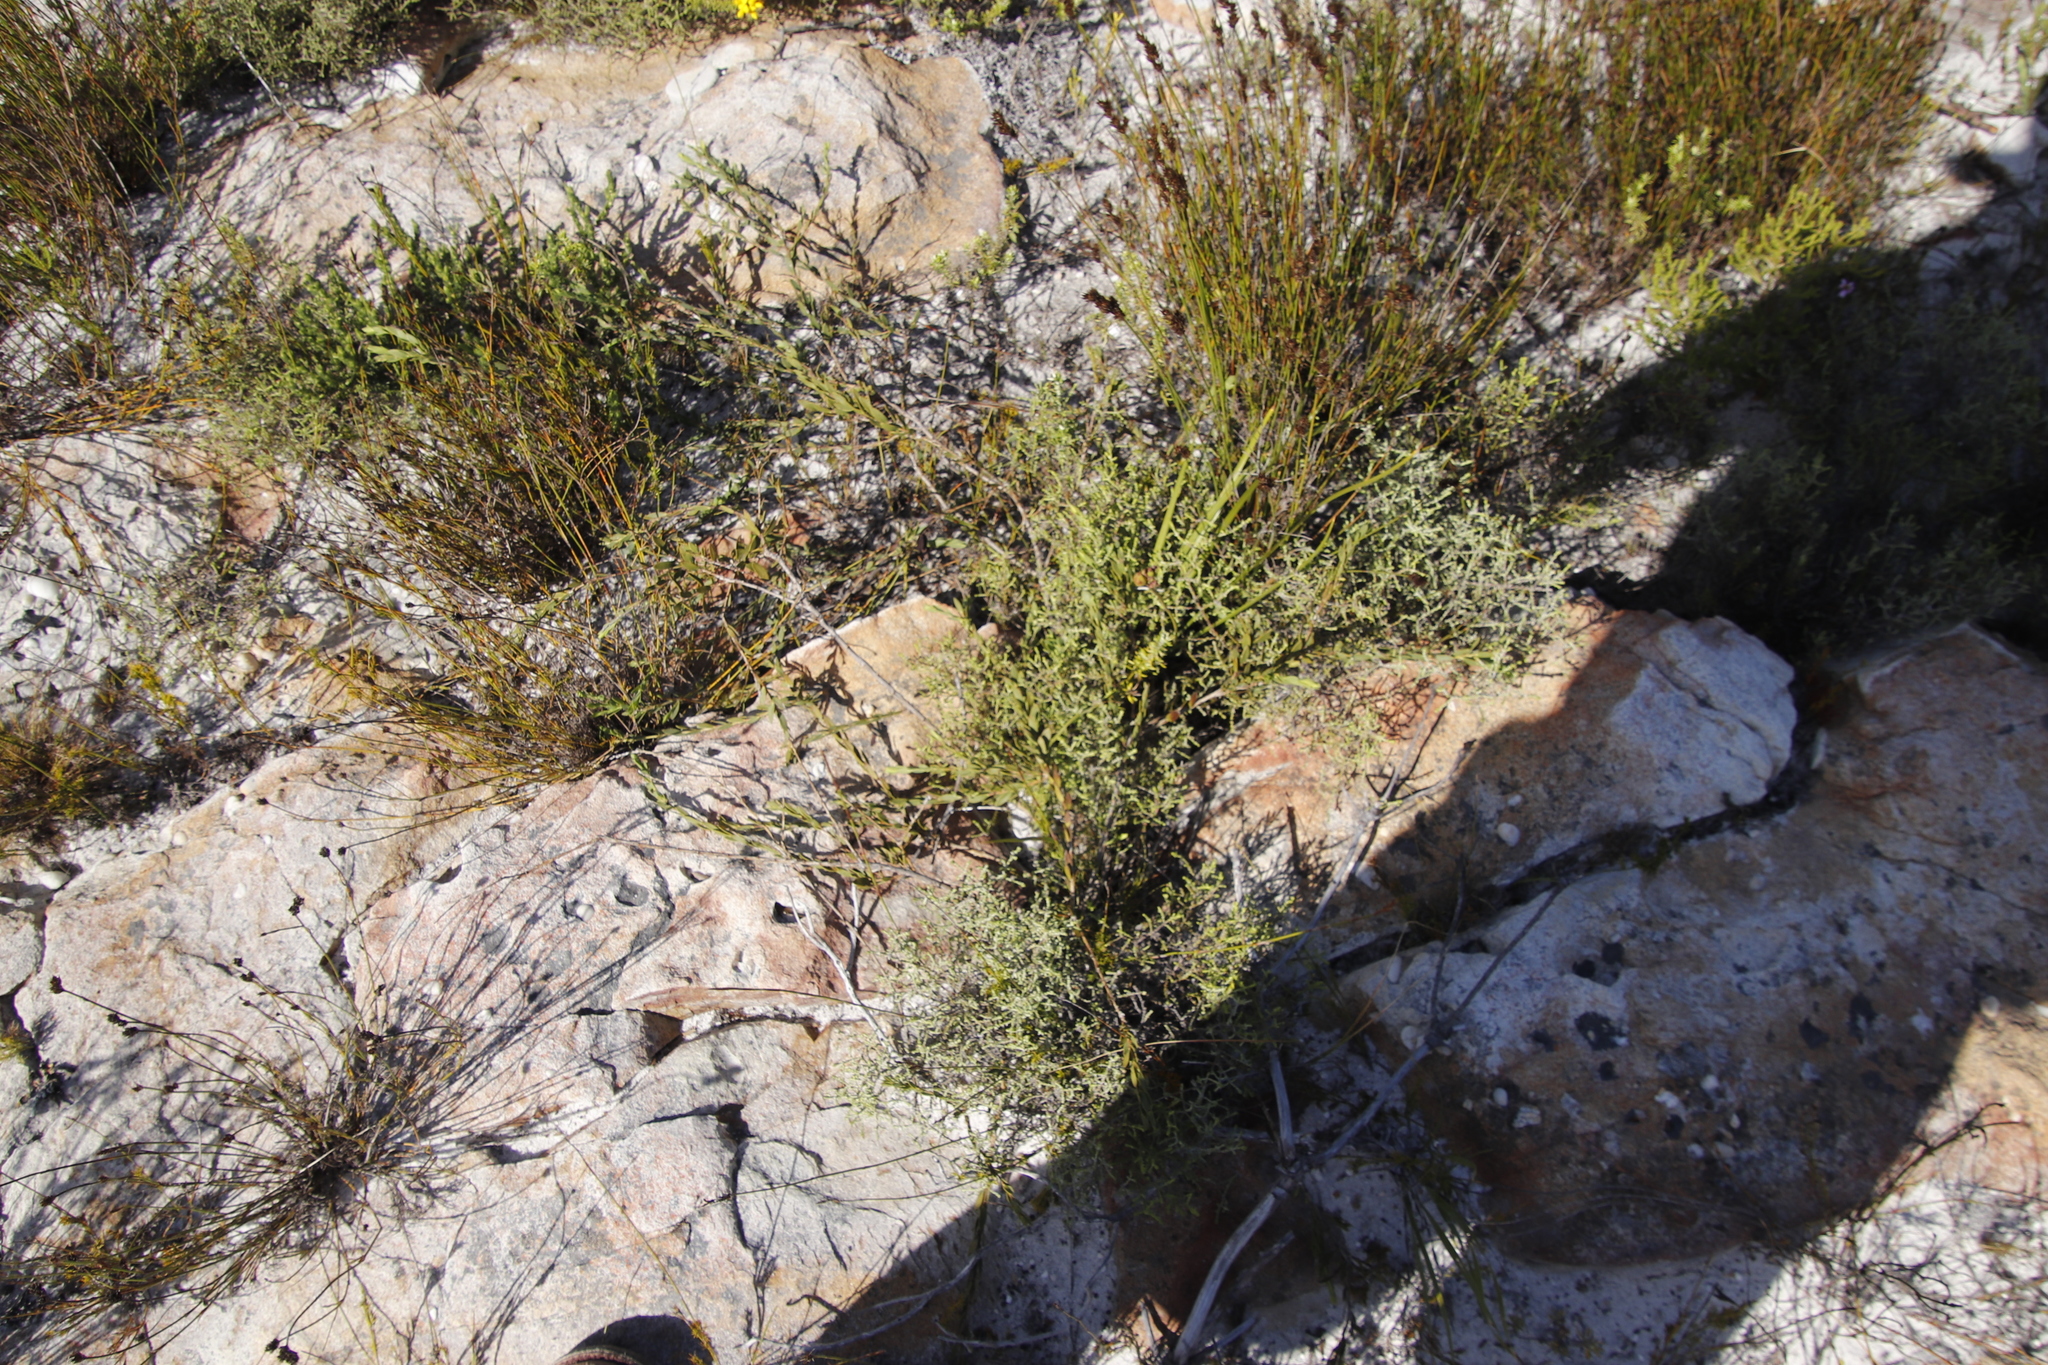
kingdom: Plantae
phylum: Tracheophyta
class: Magnoliopsida
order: Fabales
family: Fabaceae
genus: Liparia
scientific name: Liparia parva
